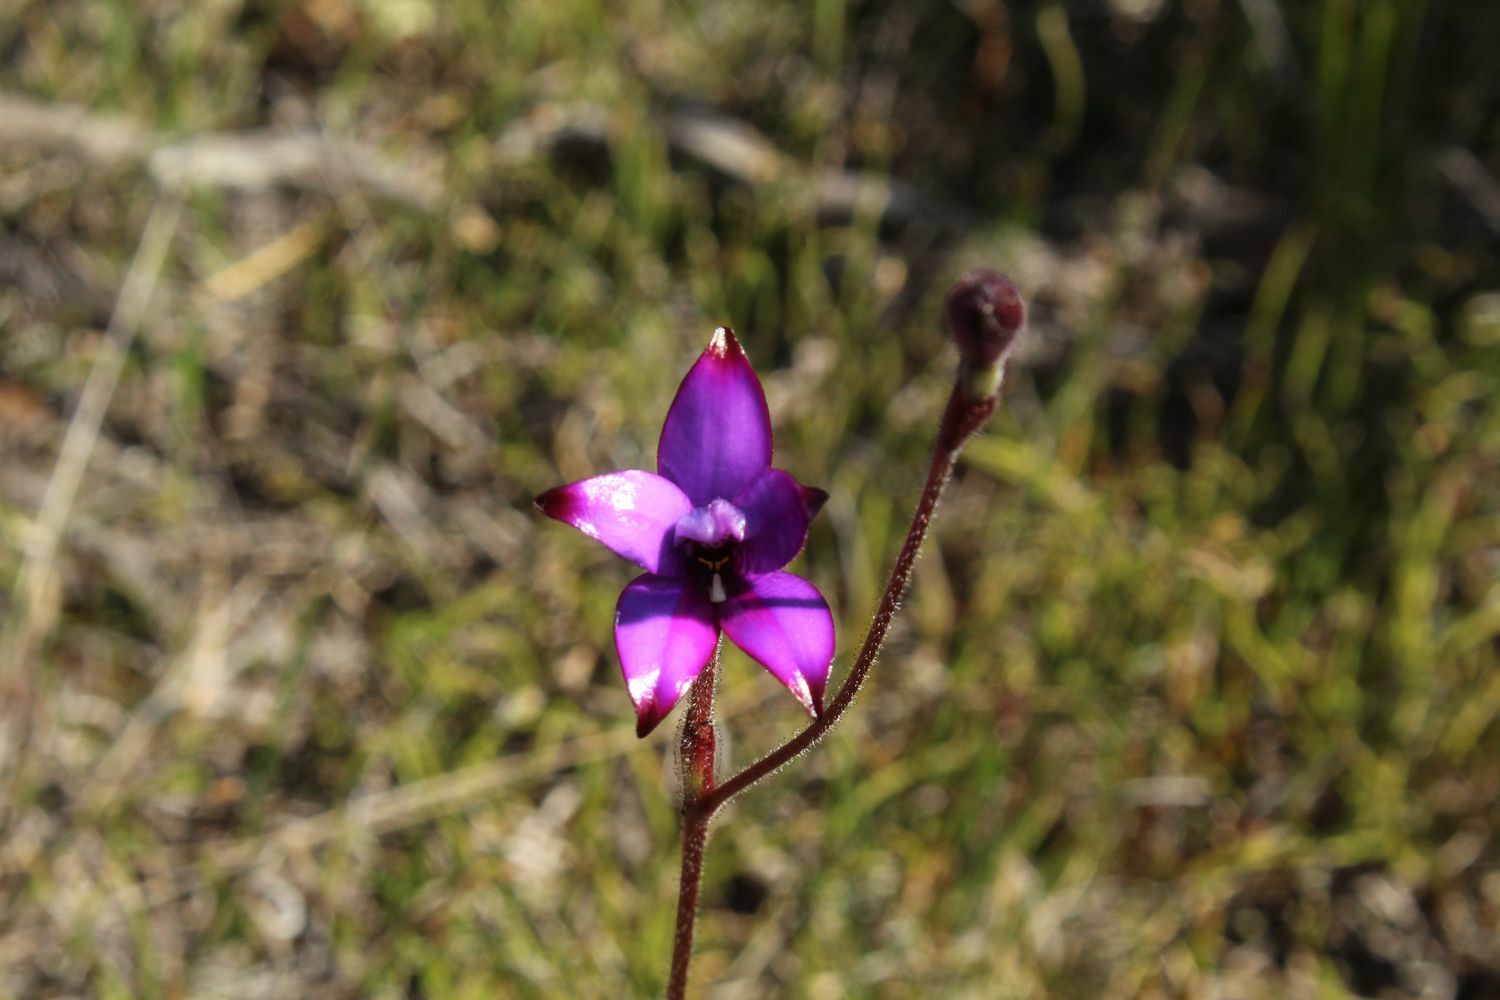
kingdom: Plantae
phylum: Tracheophyta
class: Liliopsida
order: Asparagales
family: Orchidaceae
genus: Caladenia
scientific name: Caladenia brunonis
